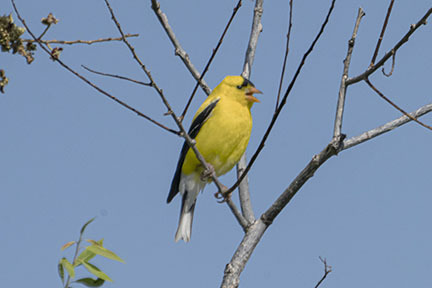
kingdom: Animalia
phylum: Chordata
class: Aves
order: Passeriformes
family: Fringillidae
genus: Spinus
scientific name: Spinus tristis
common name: American goldfinch
